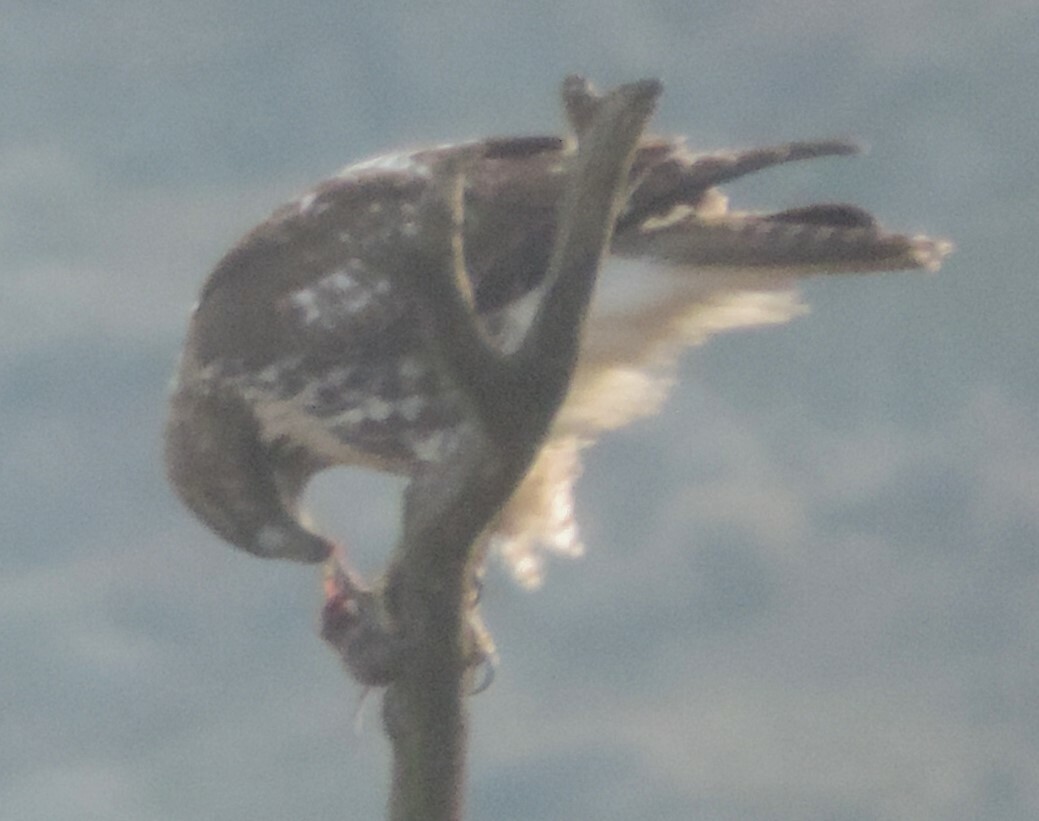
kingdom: Animalia
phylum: Chordata
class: Aves
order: Accipitriformes
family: Accipitridae
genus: Buteo
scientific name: Buteo jamaicensis
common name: Red-tailed hawk
